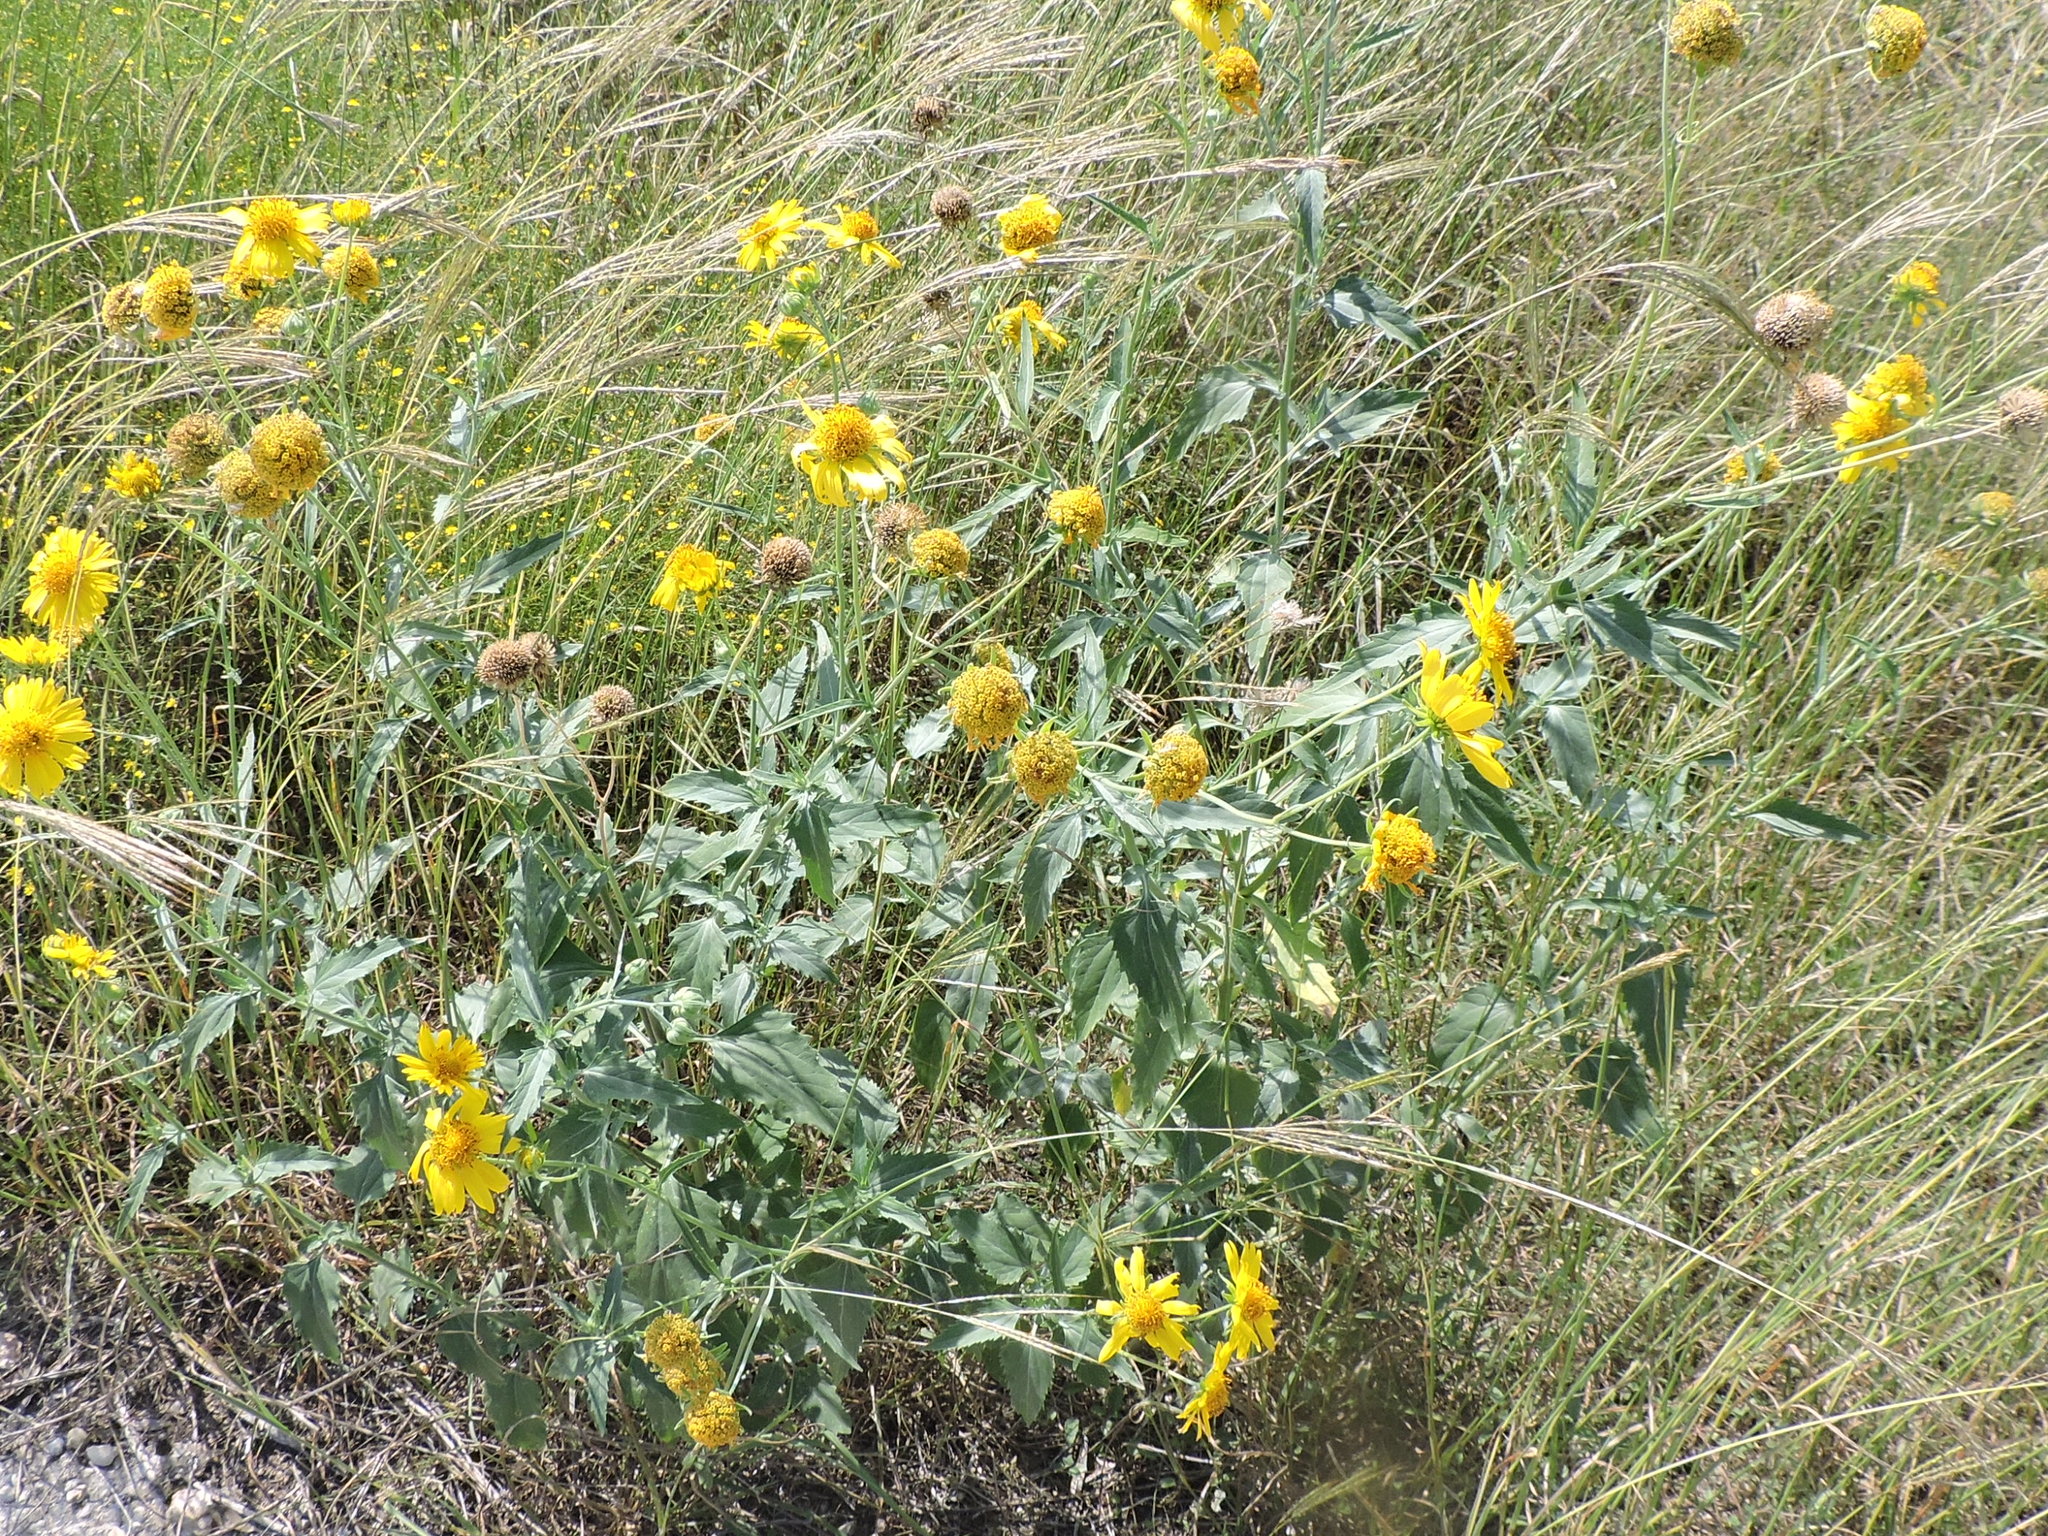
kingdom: Plantae
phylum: Tracheophyta
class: Magnoliopsida
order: Asterales
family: Asteraceae
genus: Verbesina
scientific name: Verbesina encelioides
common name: Golden crownbeard
